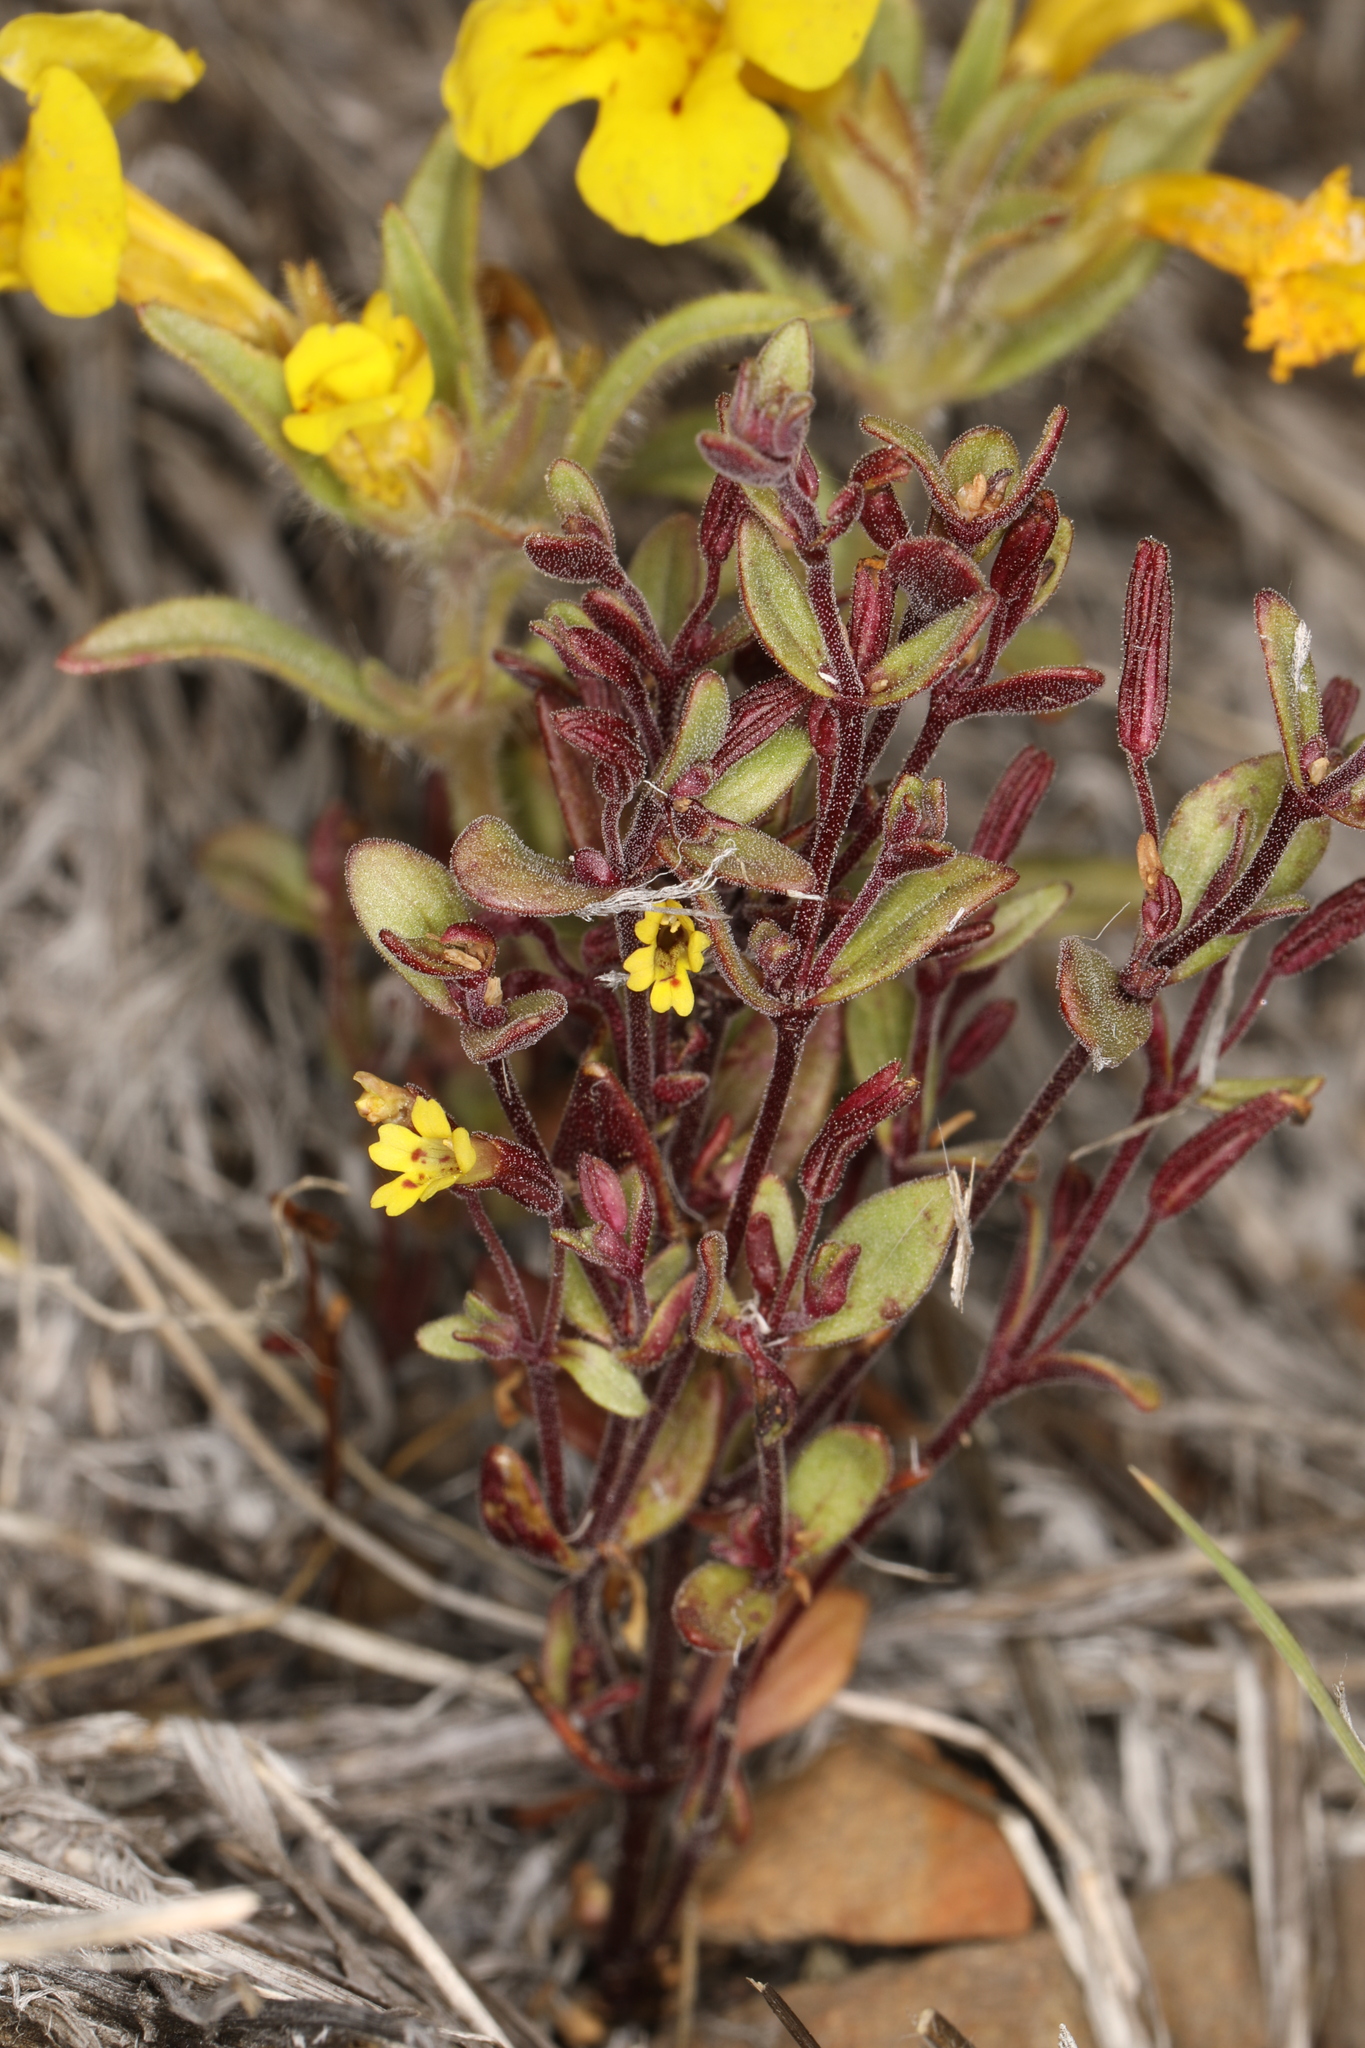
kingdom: Plantae
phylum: Tracheophyta
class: Magnoliopsida
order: Lamiales
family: Phrymaceae
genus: Erythranthe
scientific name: Erythranthe suksdorfii
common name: Suksdorf's monkeyflower
